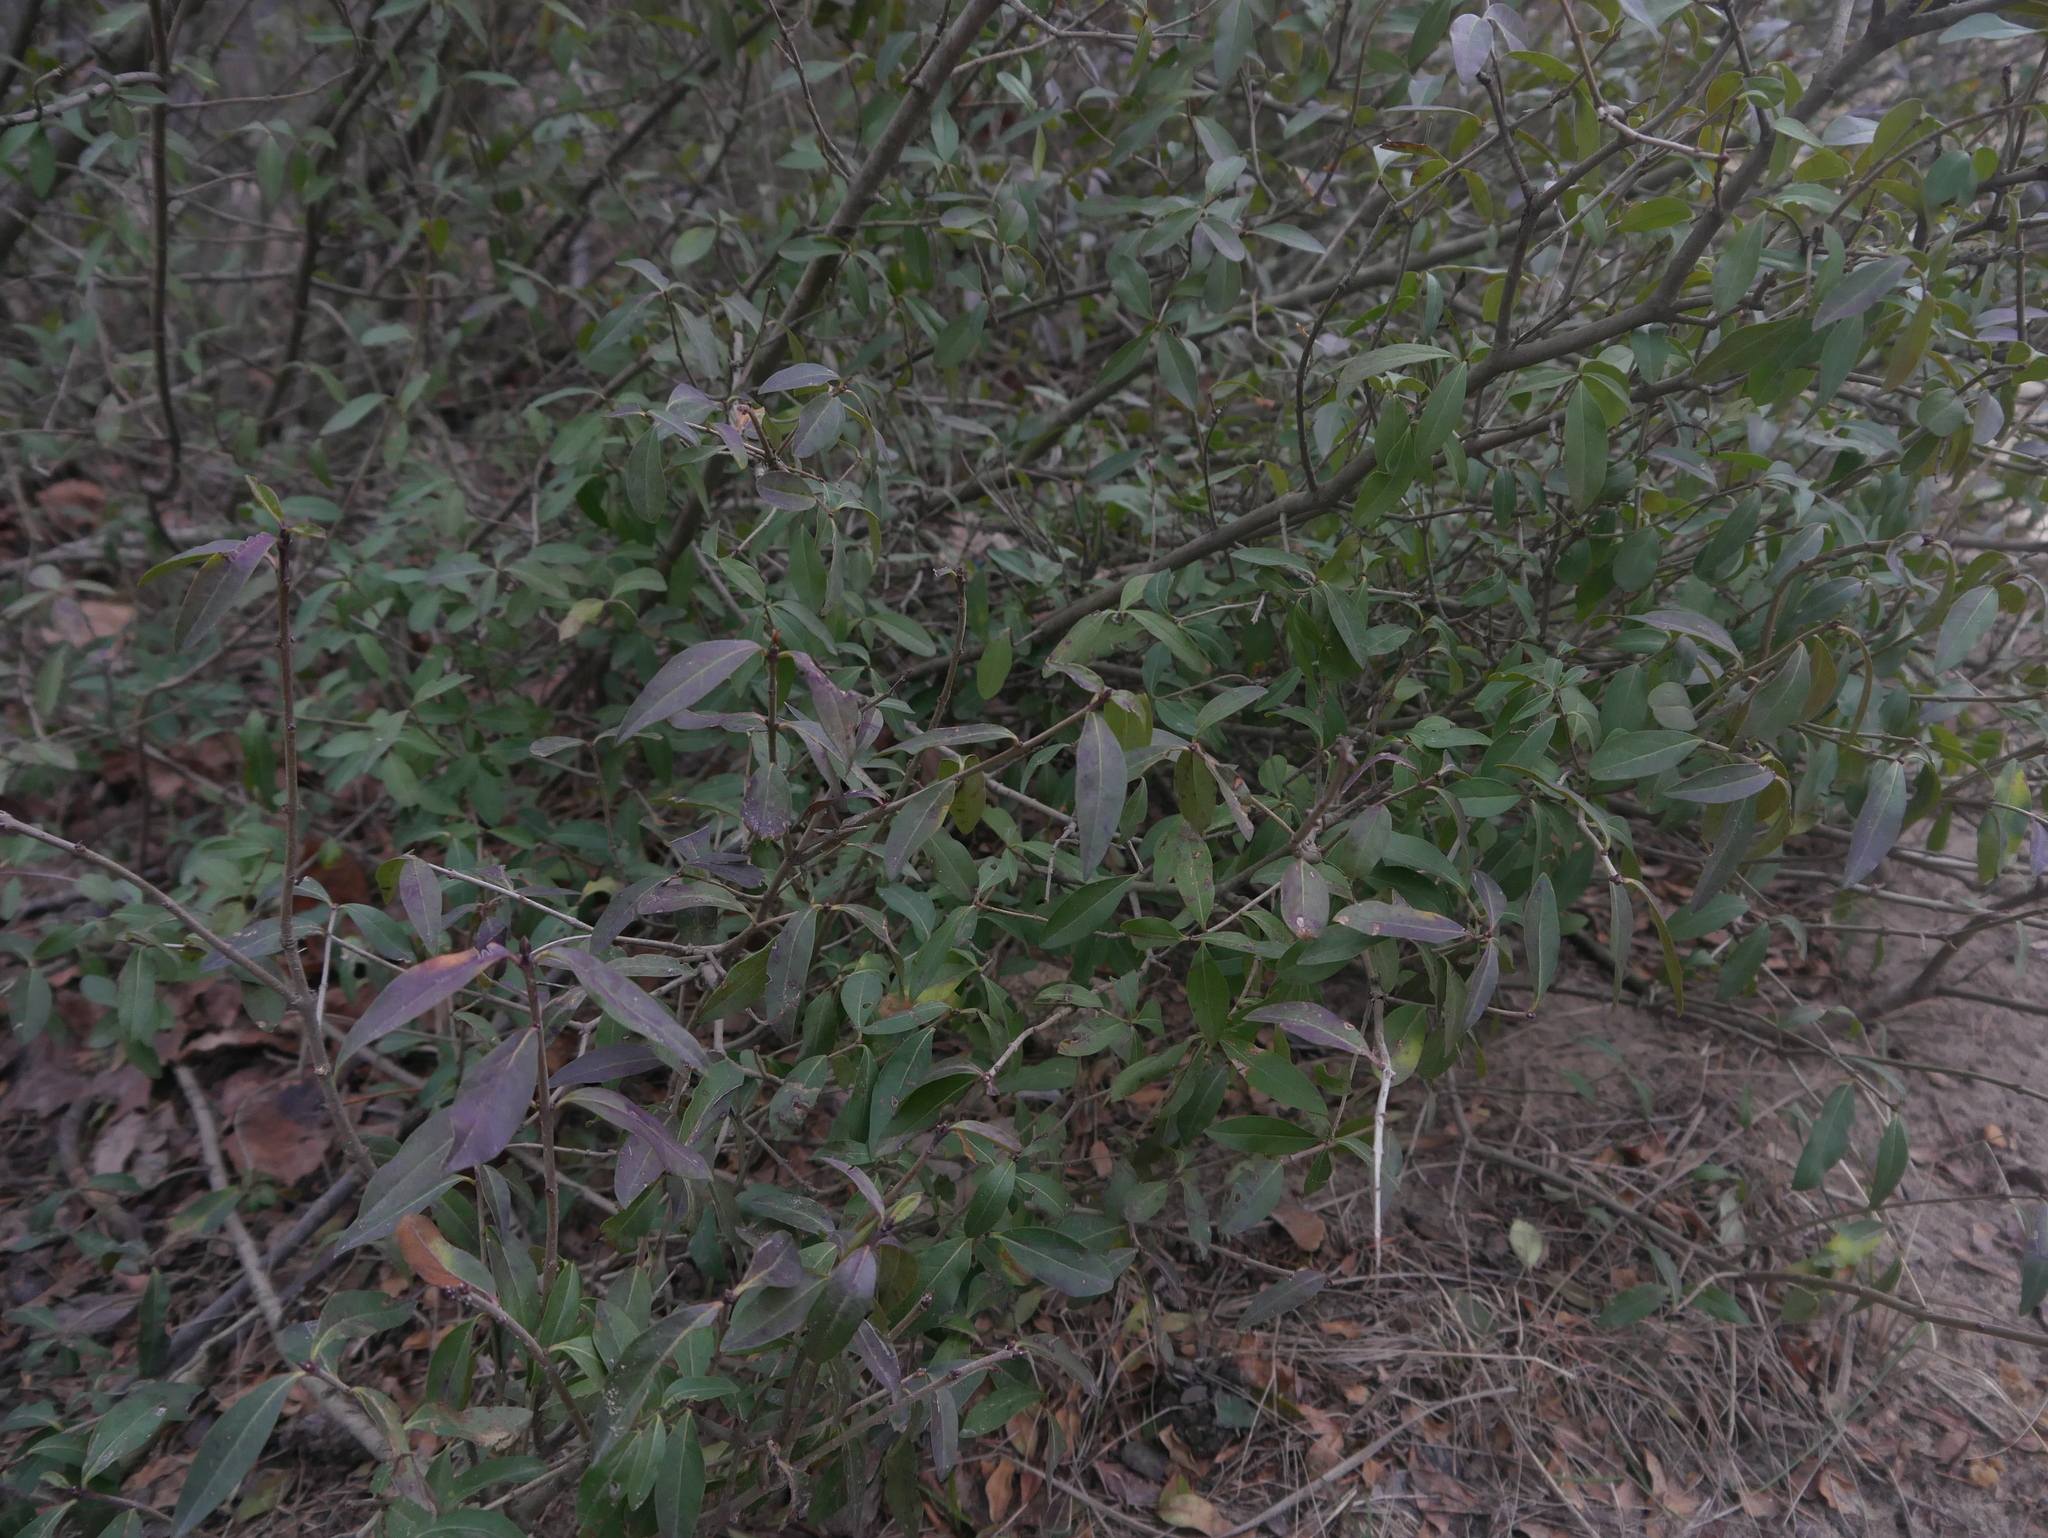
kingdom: Plantae
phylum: Tracheophyta
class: Magnoliopsida
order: Lamiales
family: Oleaceae
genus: Ligustrum
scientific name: Ligustrum vulgare
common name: Wild privet
